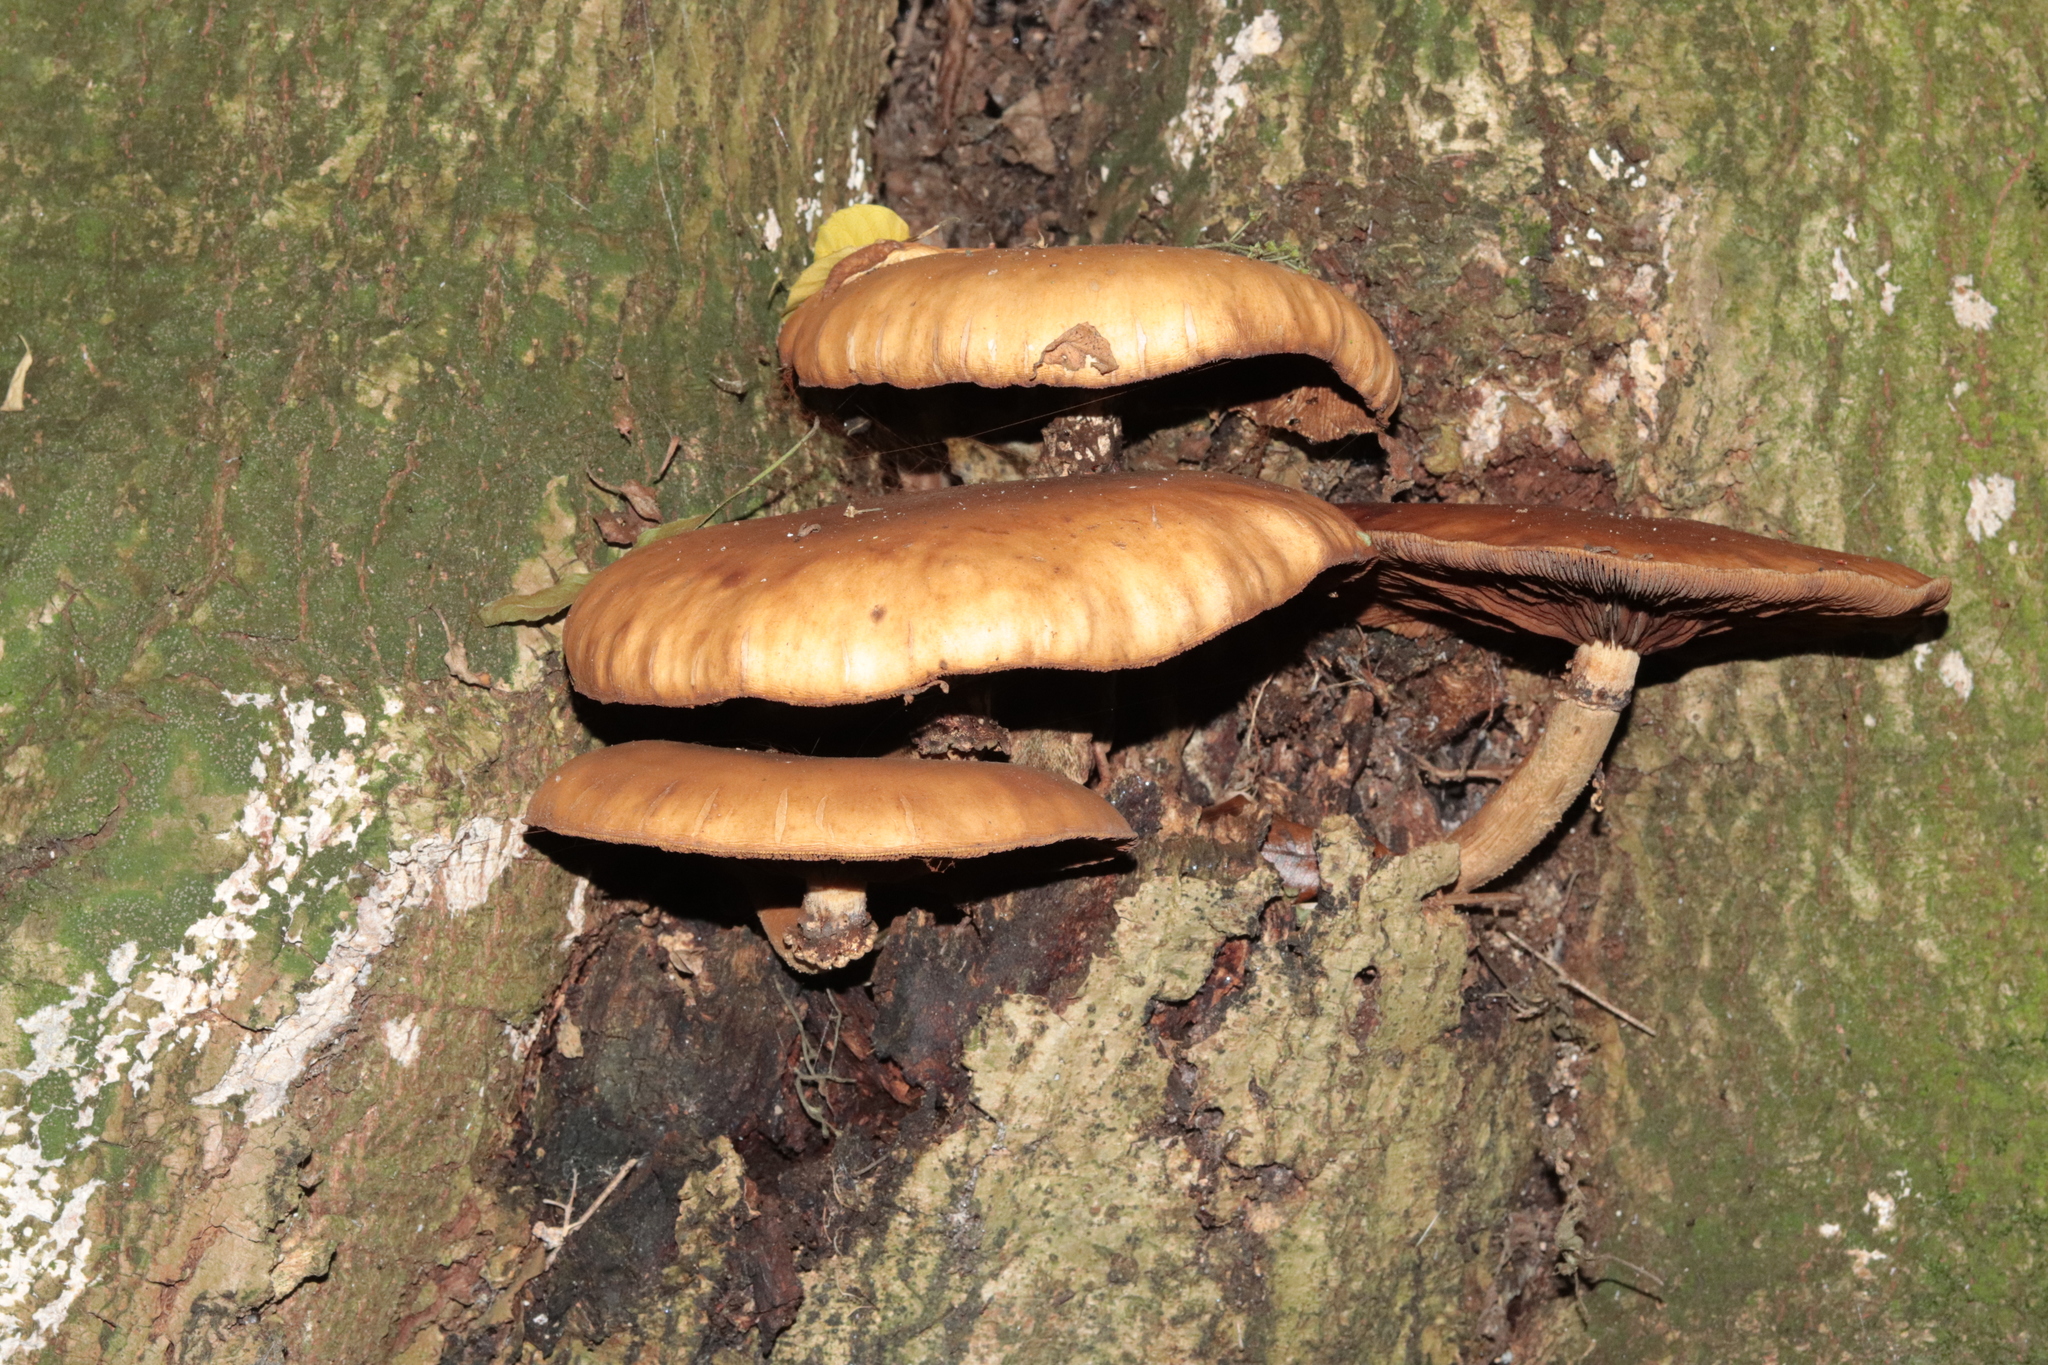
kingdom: Fungi
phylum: Basidiomycota
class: Agaricomycetes
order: Agaricales
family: Tubariaceae
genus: Cyclocybe
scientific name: Cyclocybe parasitica
